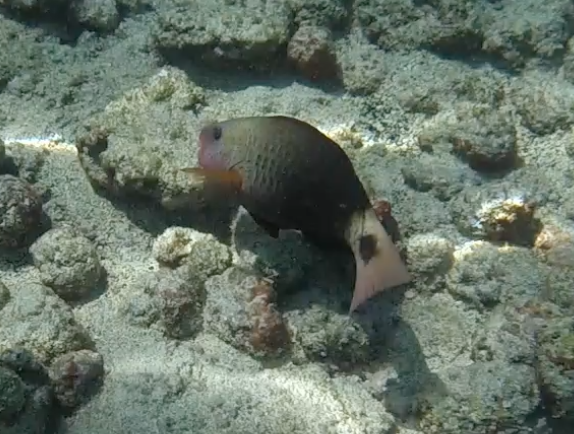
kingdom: Animalia
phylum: Chordata
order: Perciformes
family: Scaridae
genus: Chlorurus
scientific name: Chlorurus spilurus
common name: Bullethead parrotfish
